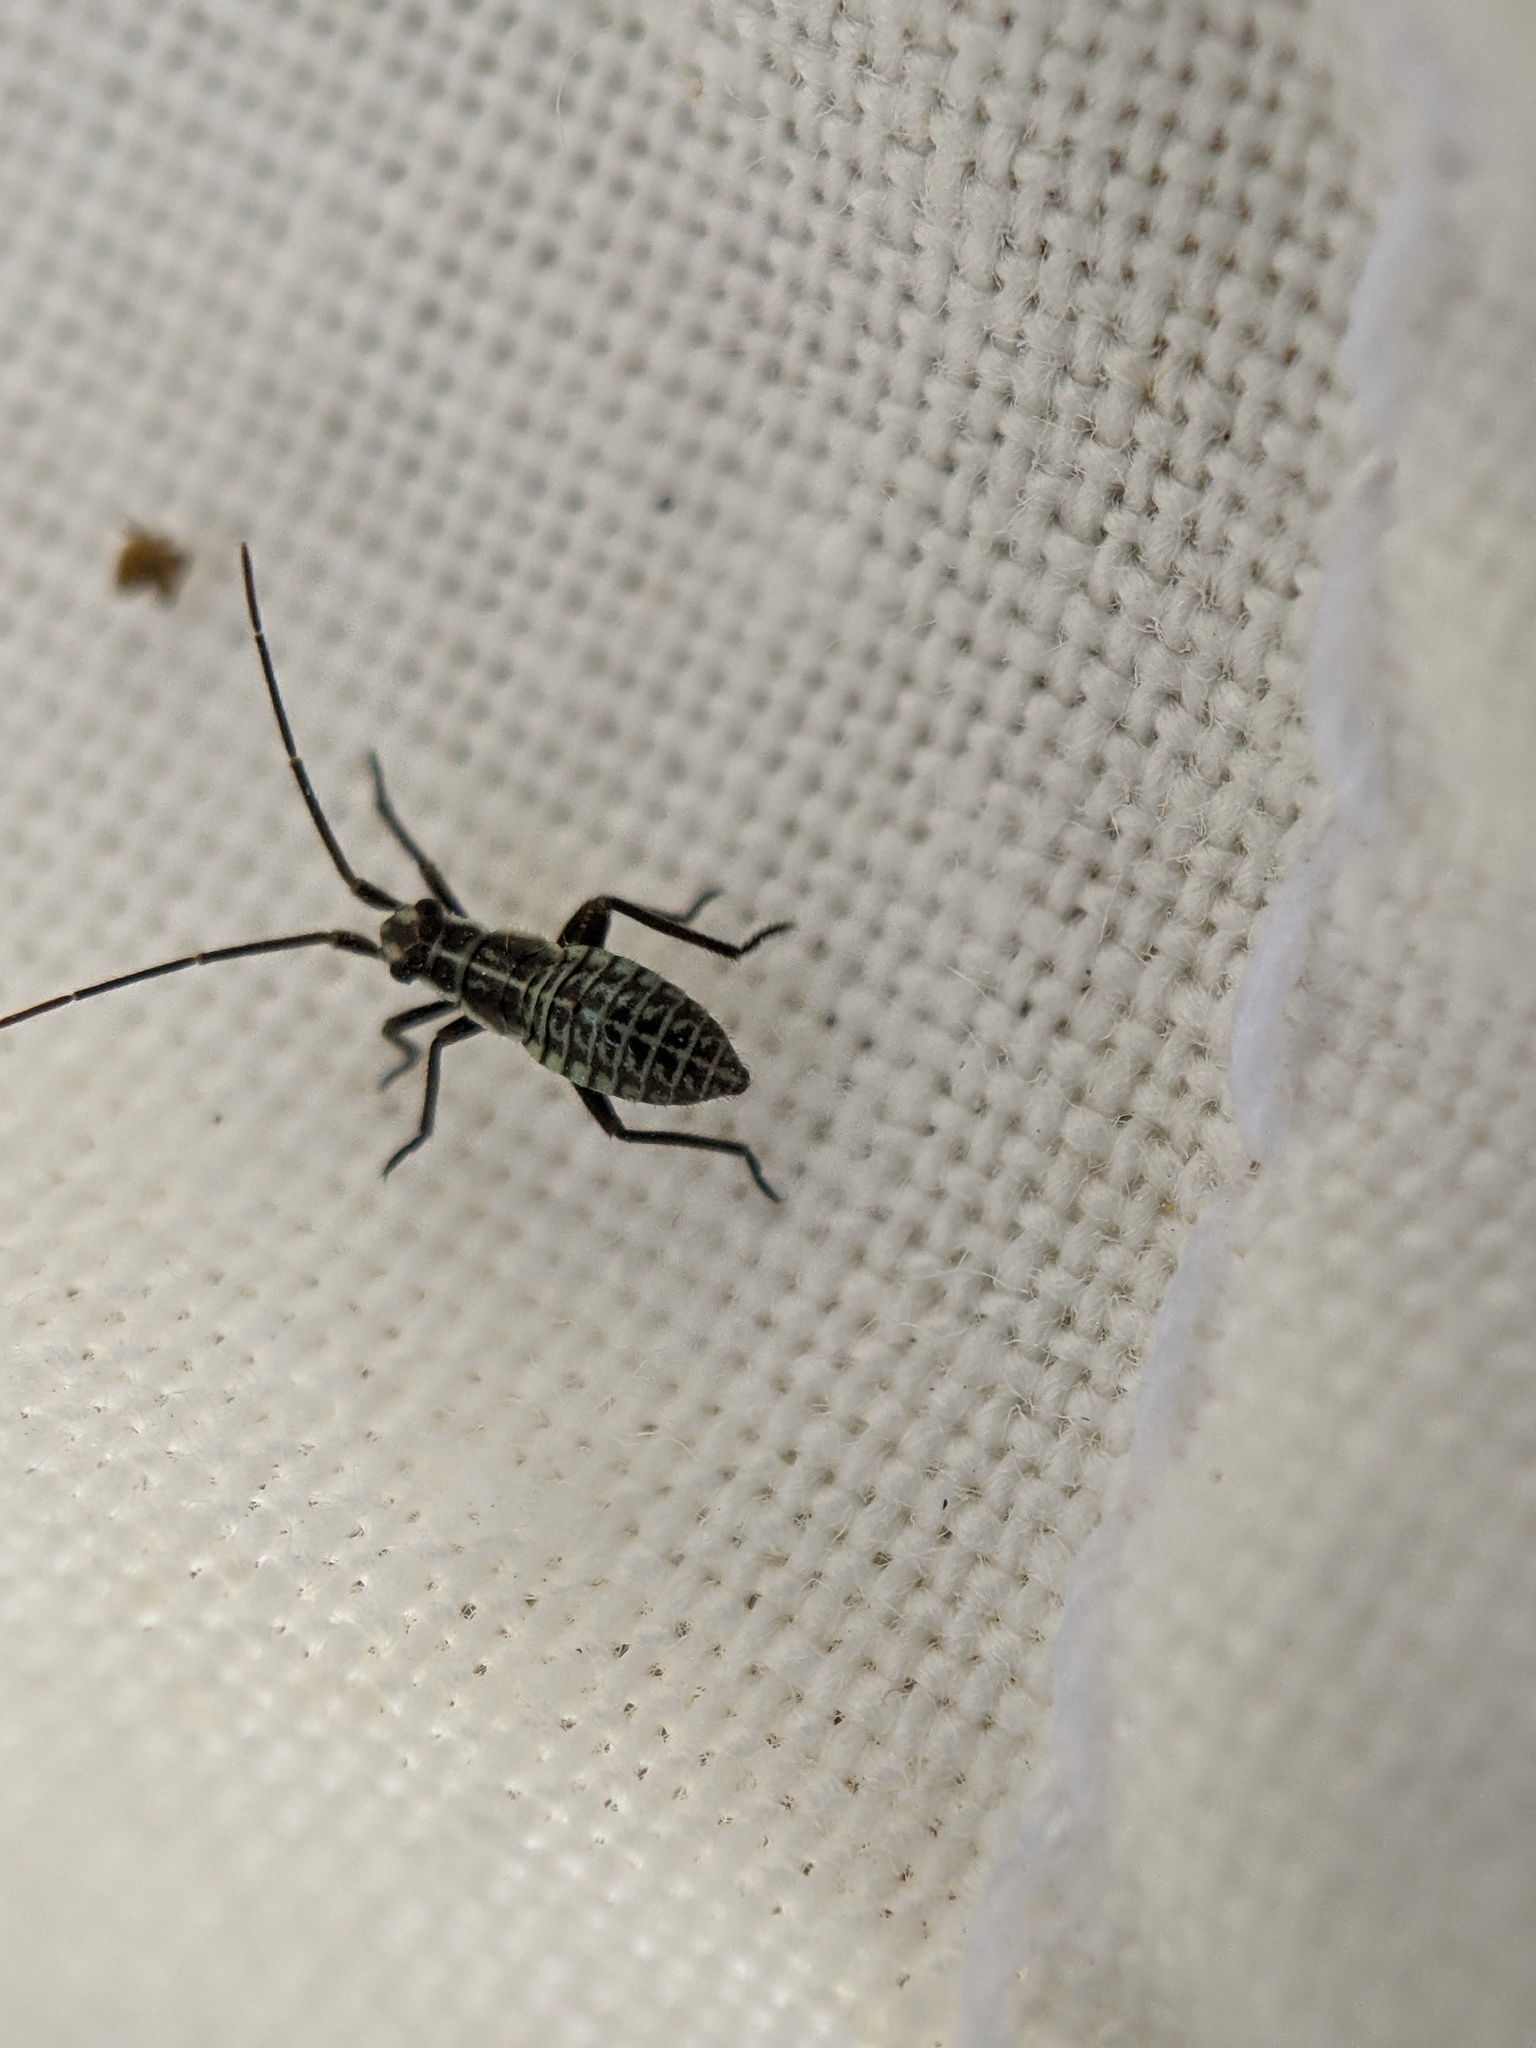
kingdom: Animalia
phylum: Arthropoda
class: Insecta
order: Hemiptera
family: Miridae
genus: Leptopterna
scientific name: Leptopterna dolabrata
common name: Meadow plant bug
